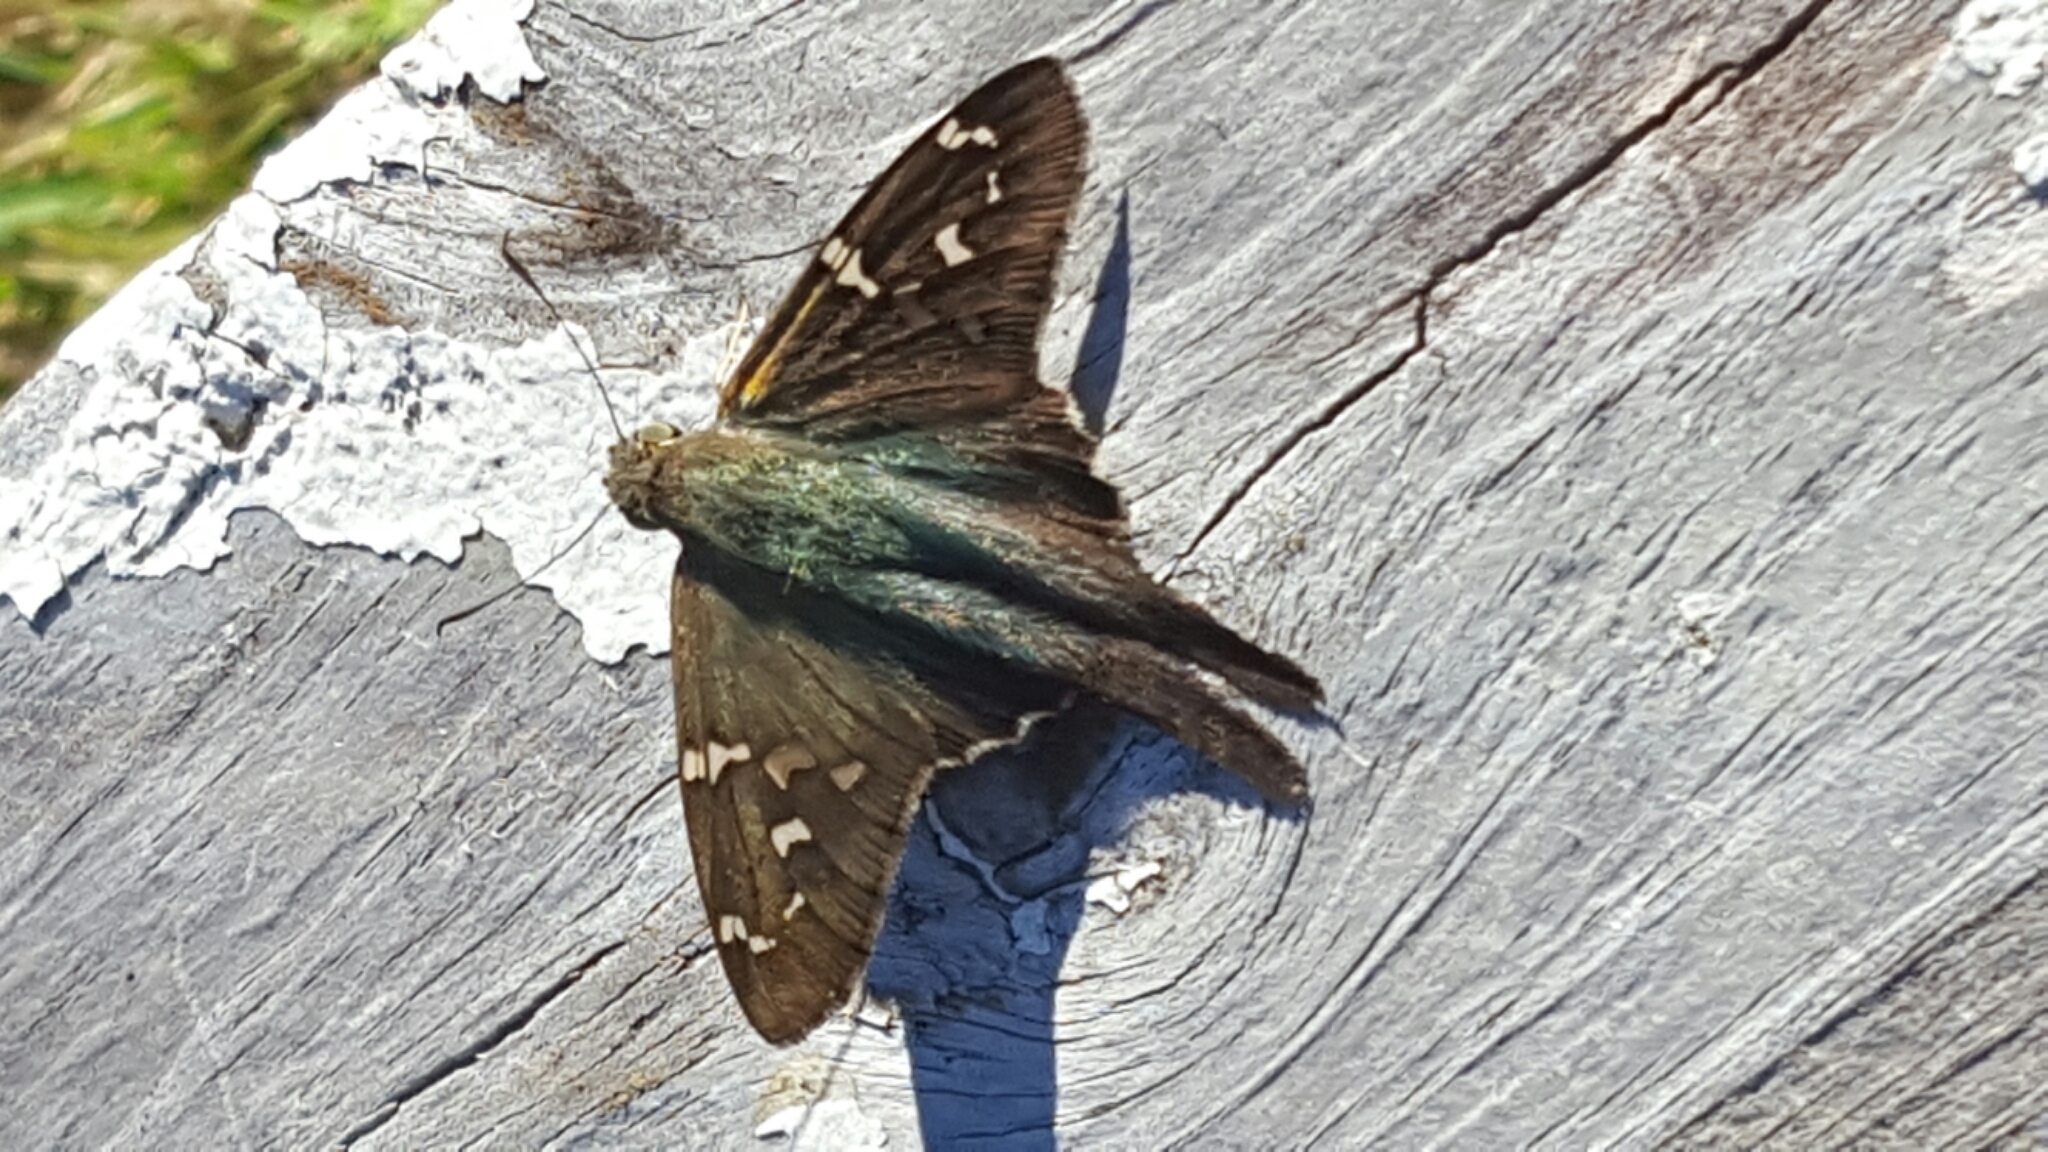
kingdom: Animalia
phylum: Arthropoda
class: Insecta
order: Lepidoptera
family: Hesperiidae
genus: Urbanus
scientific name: Urbanus proteus
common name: Long-tailed skipper
